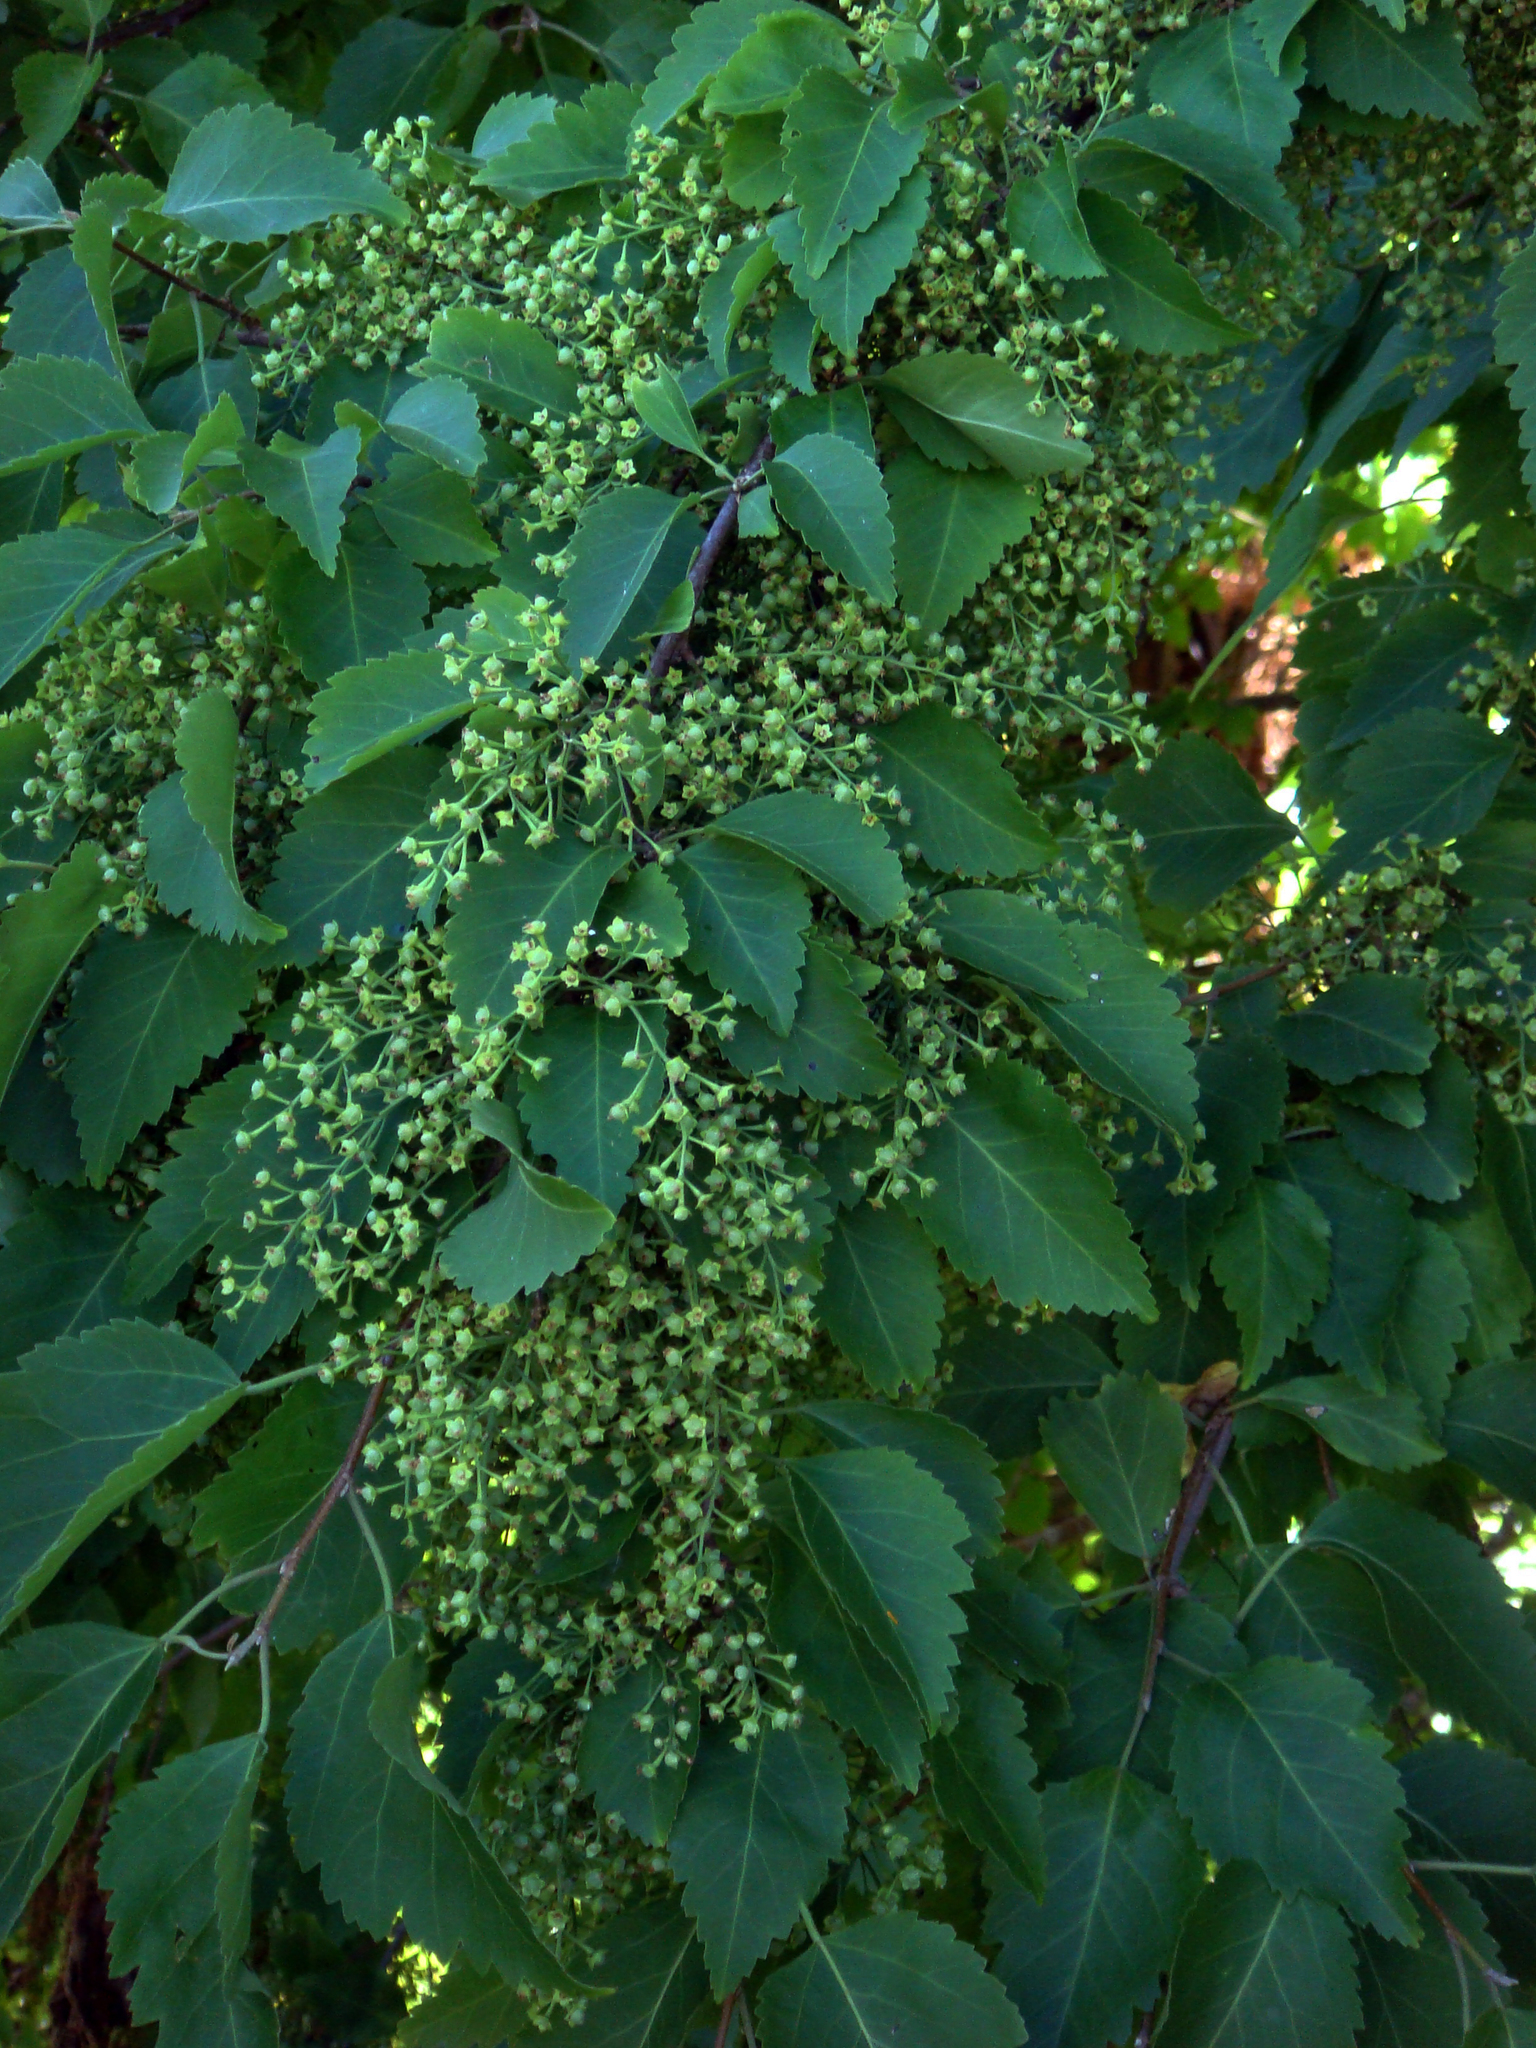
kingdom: Plantae
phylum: Tracheophyta
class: Magnoliopsida
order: Malvales
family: Malvaceae
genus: Plagianthus
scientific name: Plagianthus regius
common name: Manatu
